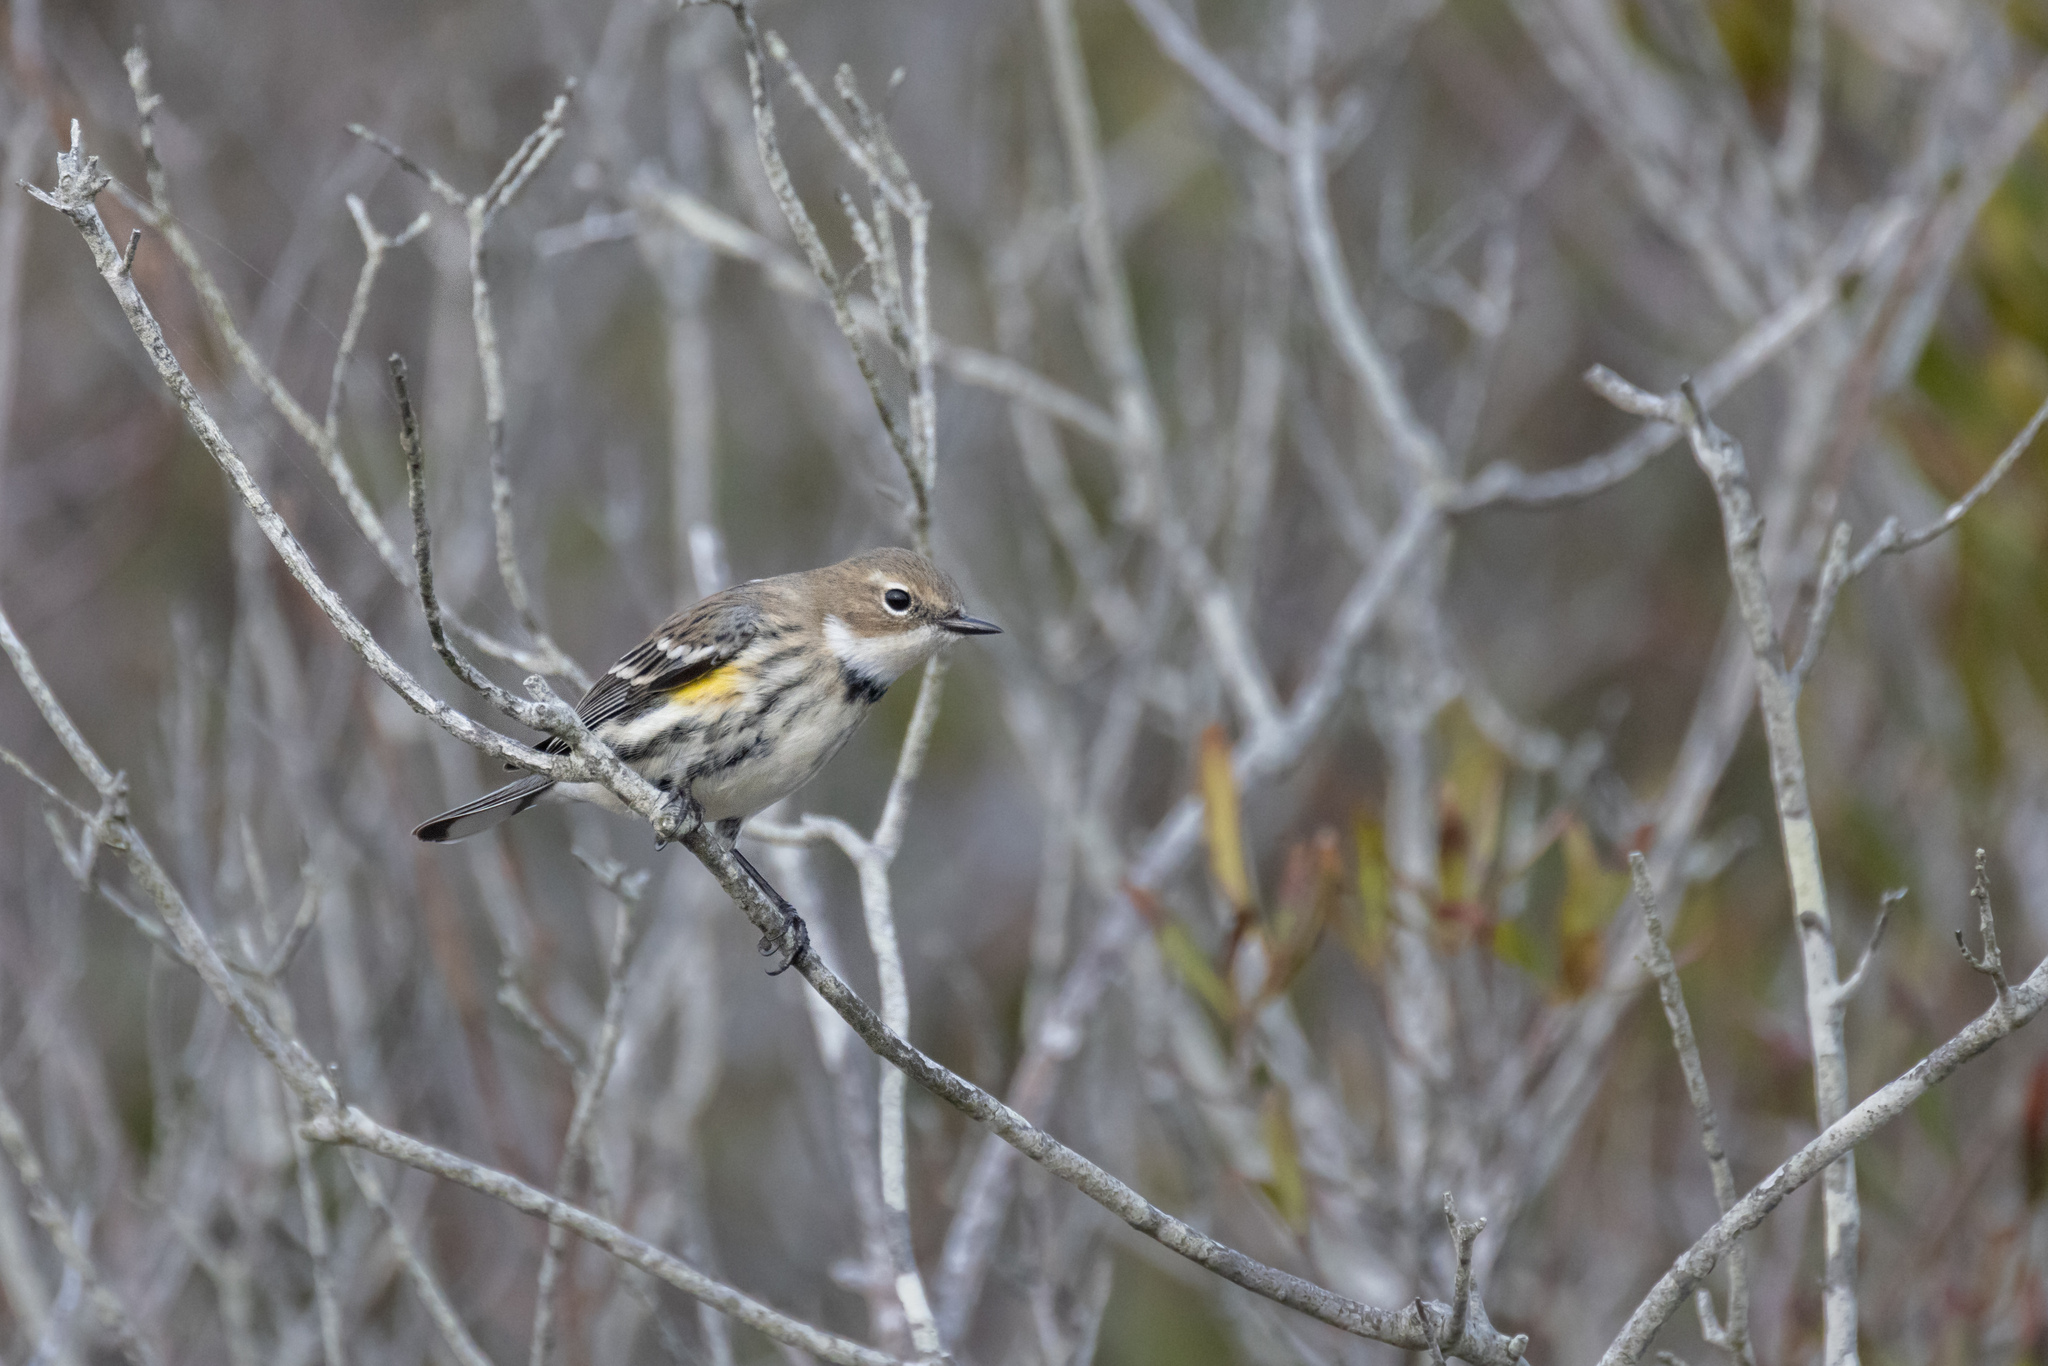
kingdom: Animalia
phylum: Chordata
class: Aves
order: Passeriformes
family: Parulidae
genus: Setophaga
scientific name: Setophaga coronata
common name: Myrtle warbler
